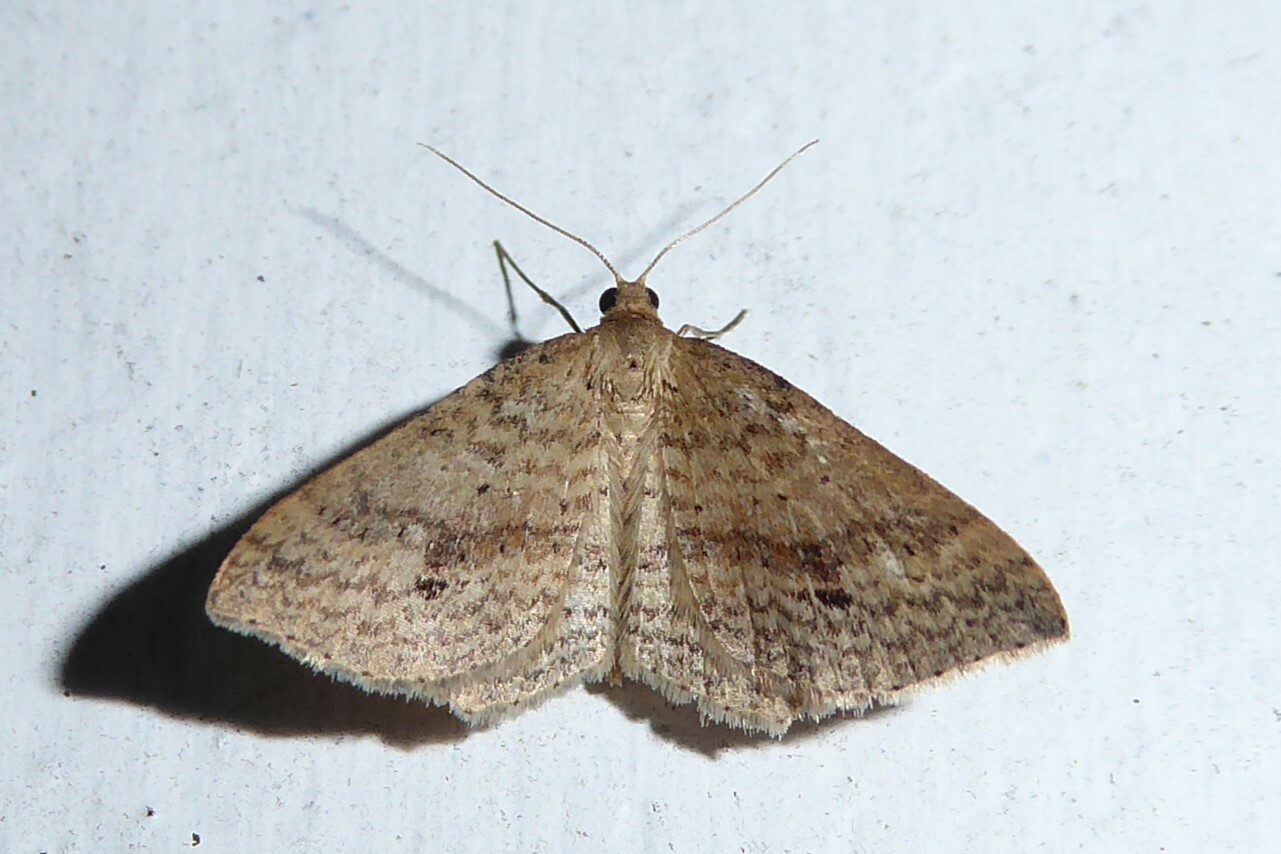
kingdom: Animalia
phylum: Arthropoda
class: Insecta
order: Lepidoptera
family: Geometridae
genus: Epicyme
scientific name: Epicyme rubropunctaria
